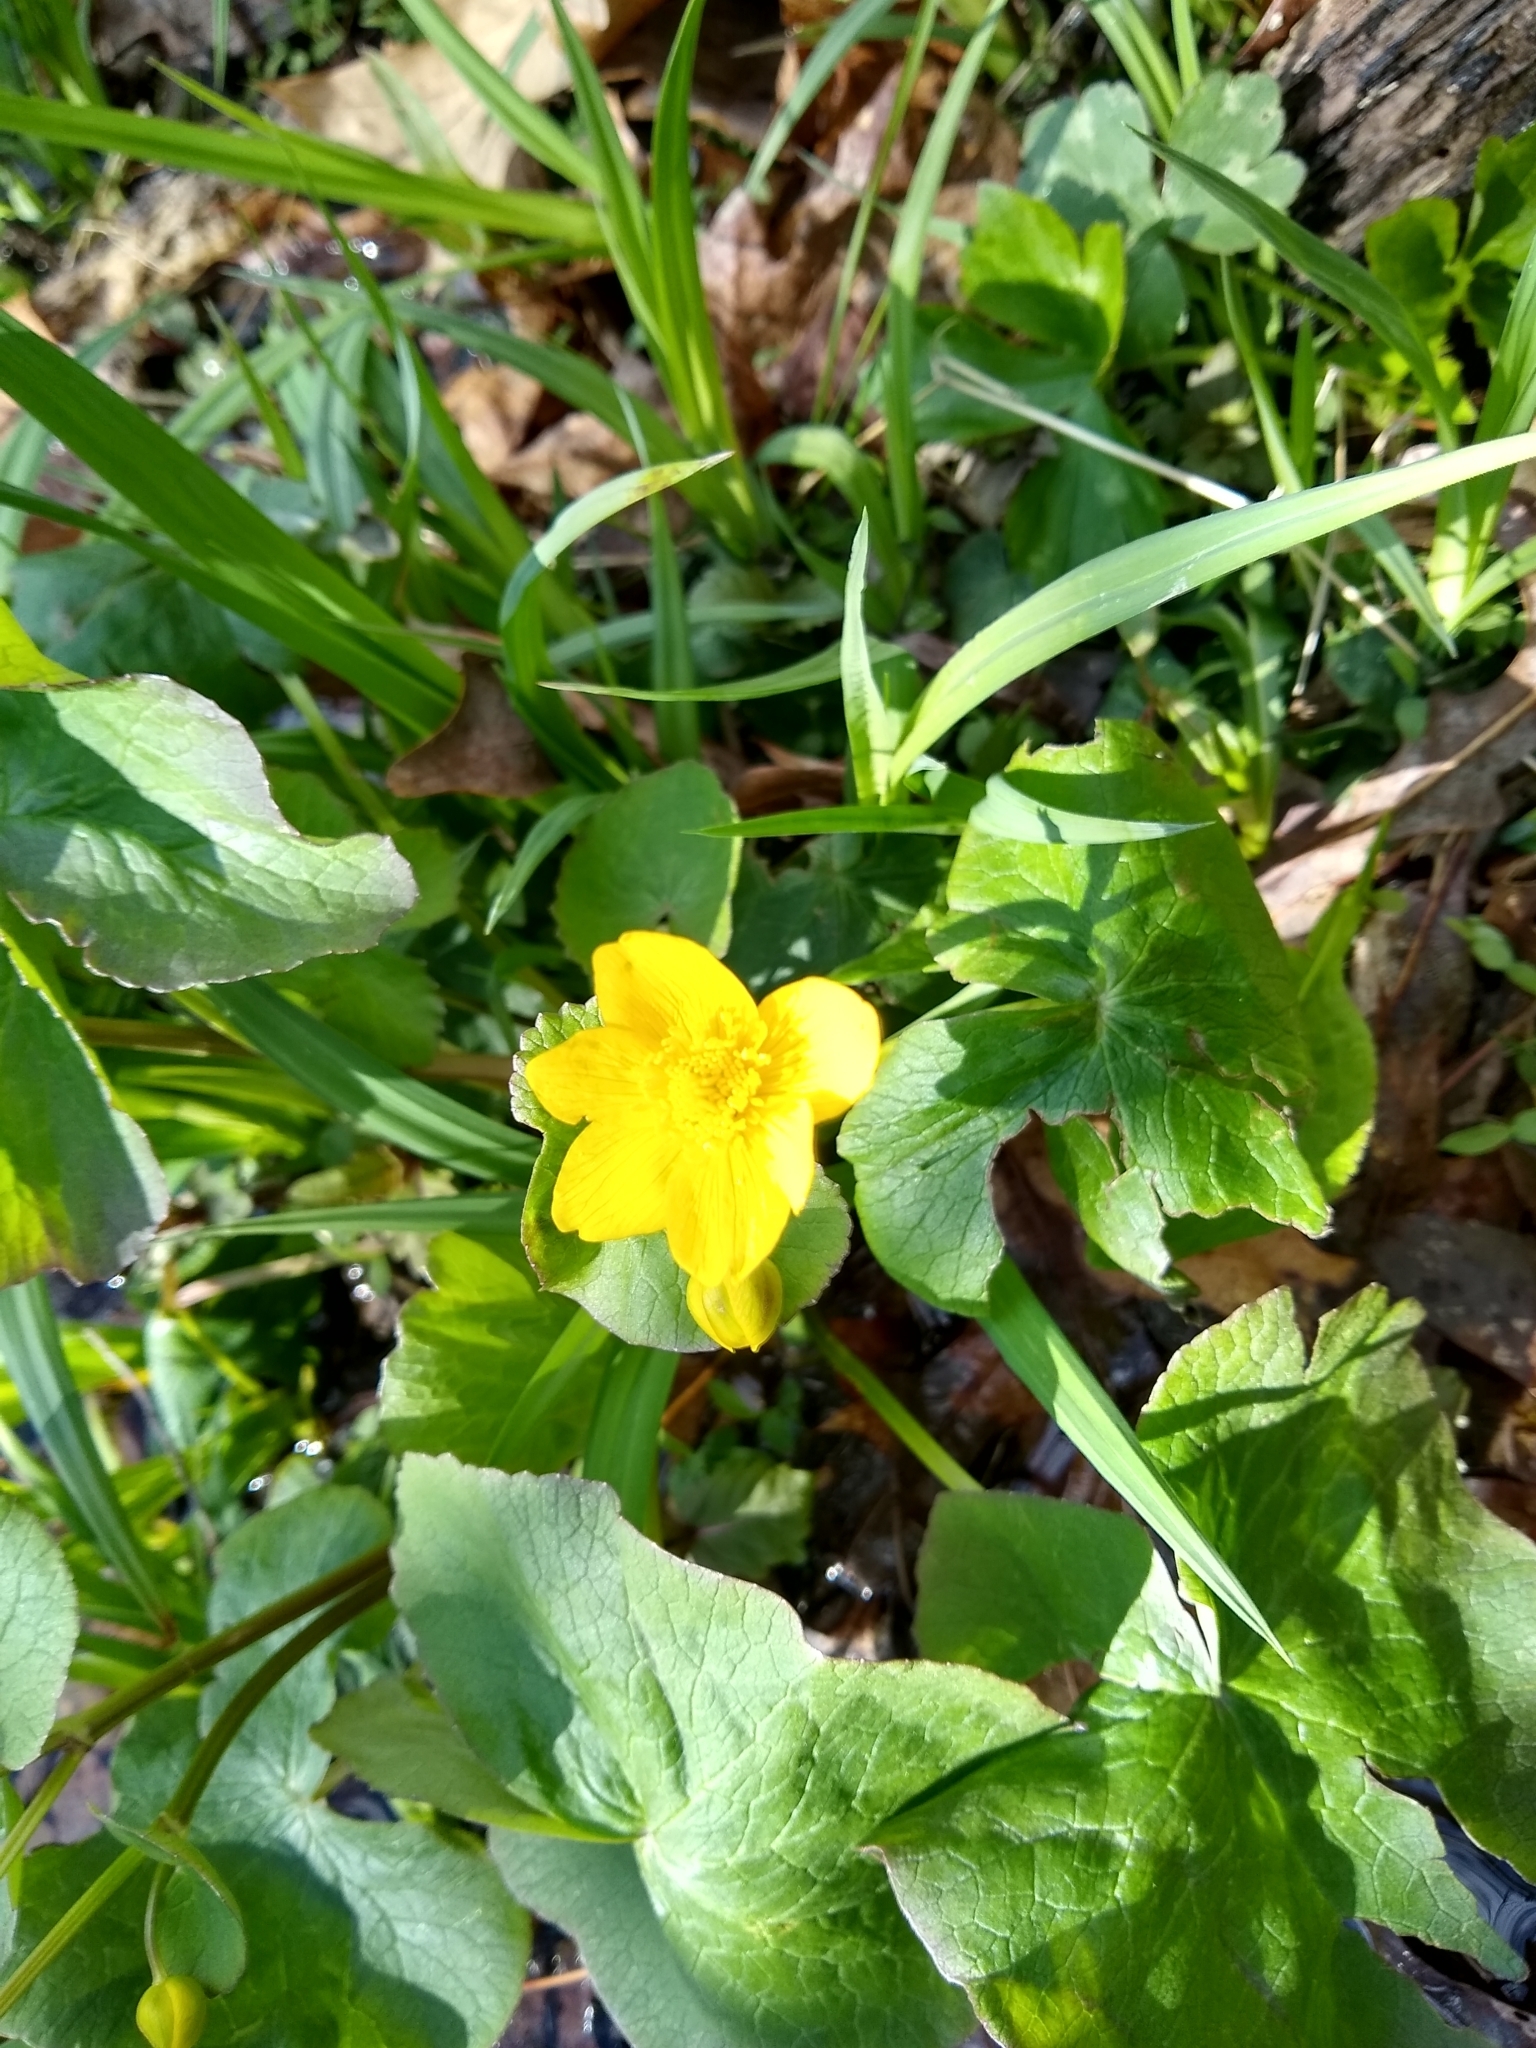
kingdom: Plantae
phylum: Tracheophyta
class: Magnoliopsida
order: Ranunculales
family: Ranunculaceae
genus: Caltha
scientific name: Caltha palustris
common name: Marsh marigold
